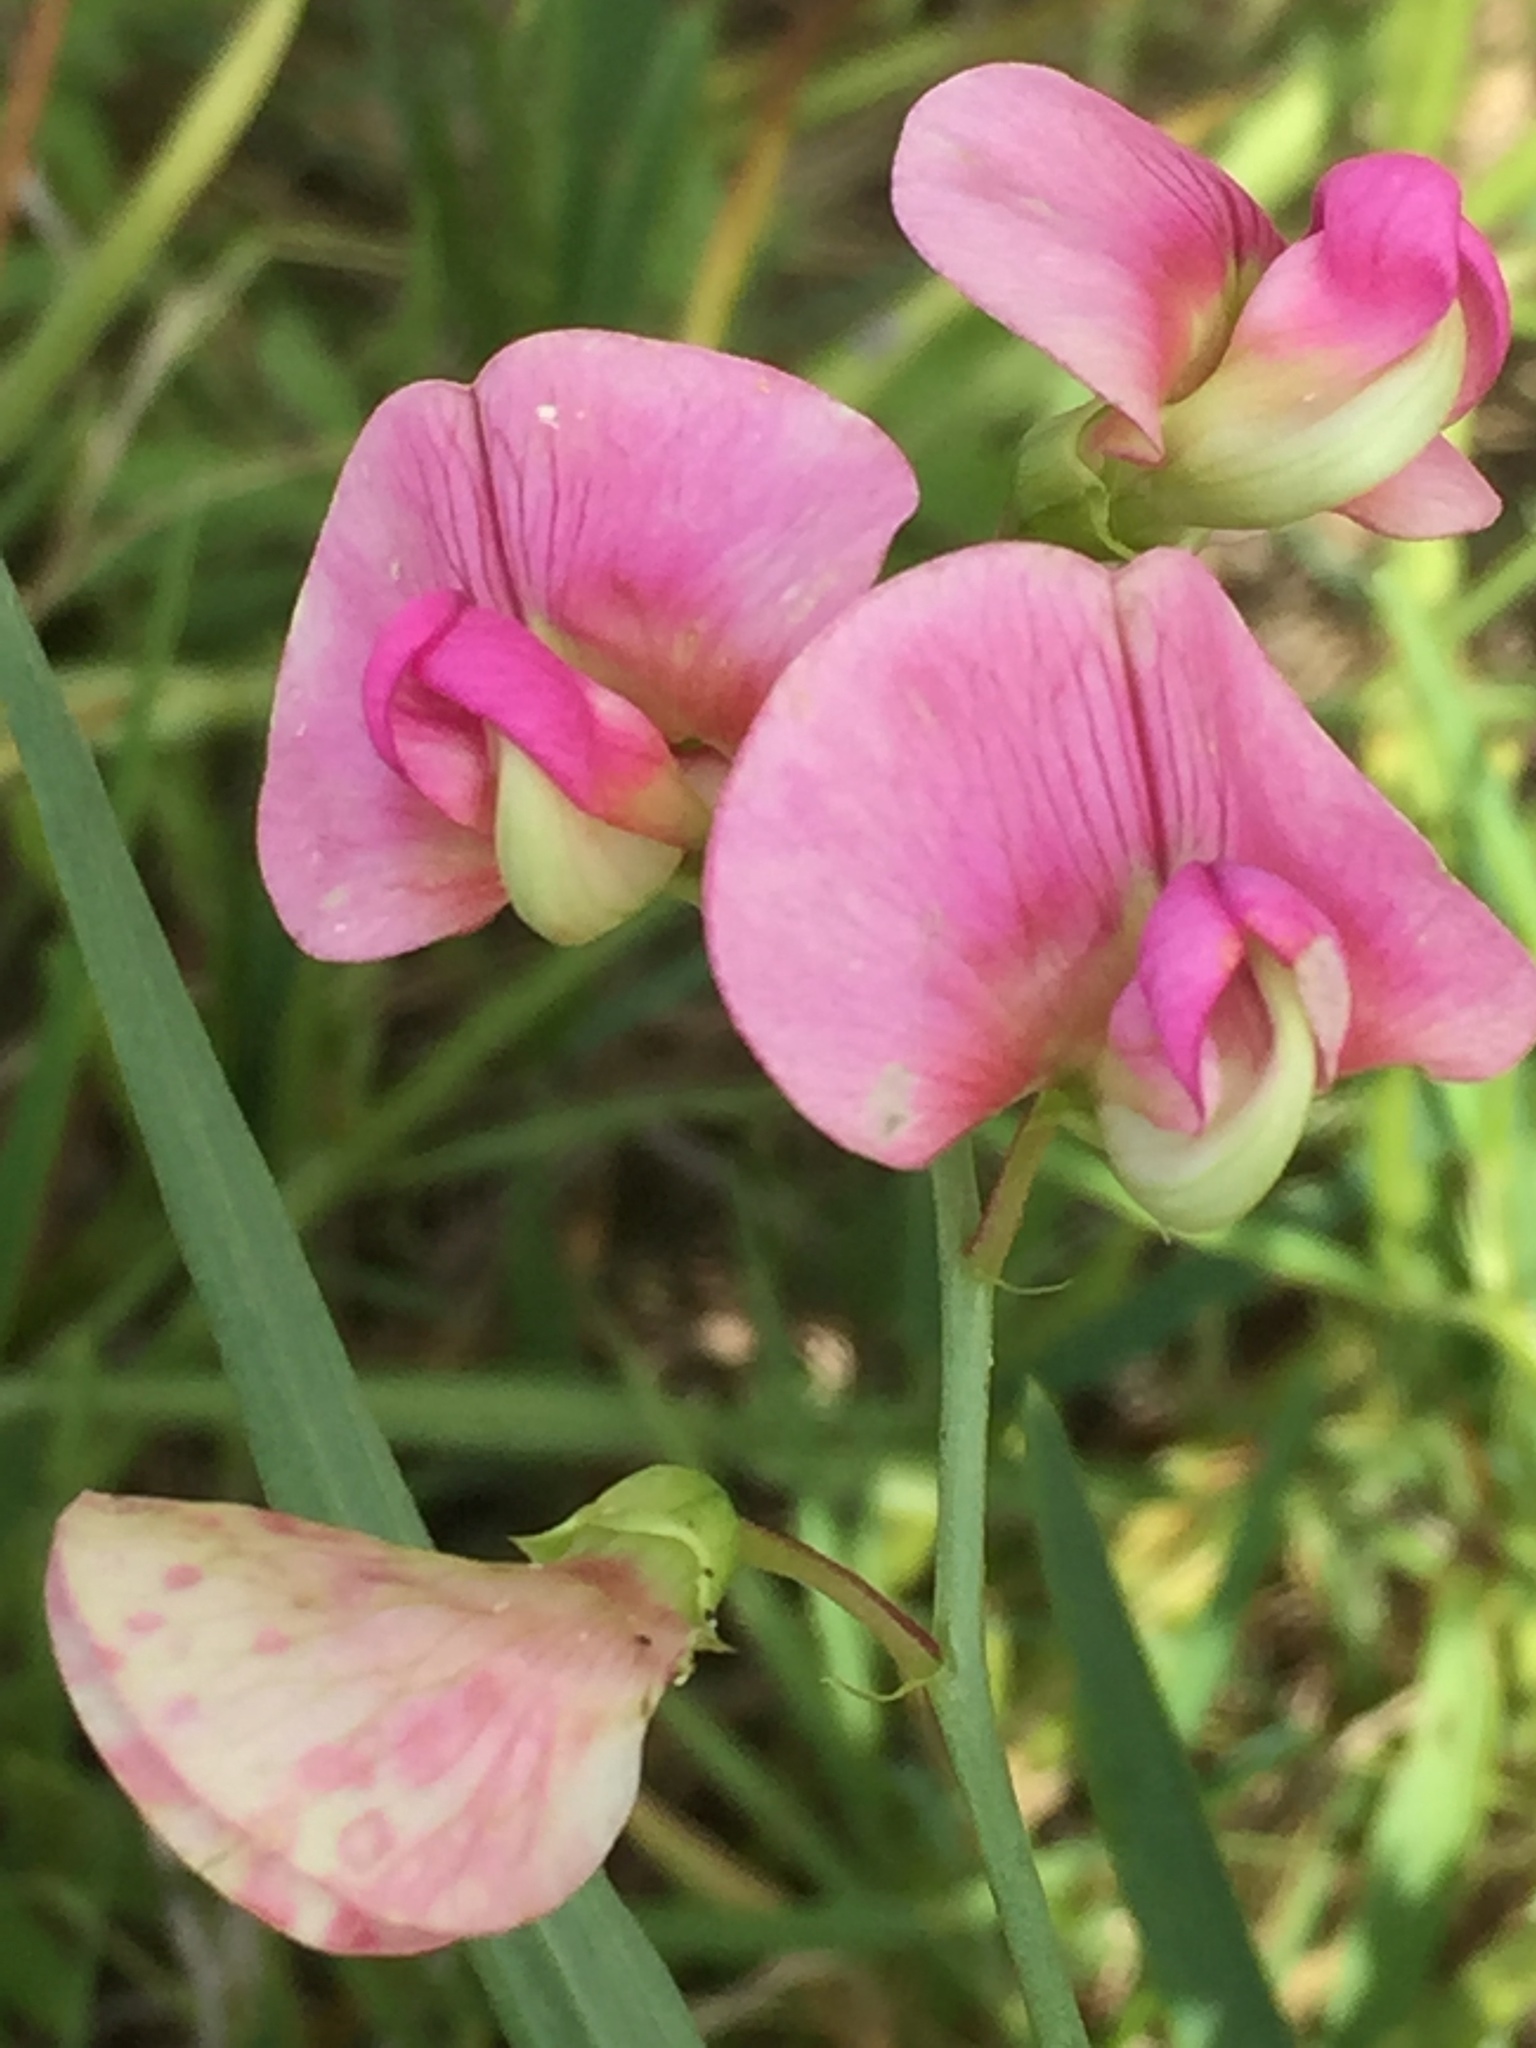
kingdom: Plantae
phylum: Tracheophyta
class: Magnoliopsida
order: Fabales
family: Fabaceae
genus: Lathyrus
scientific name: Lathyrus sylvestris
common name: Flat pea
